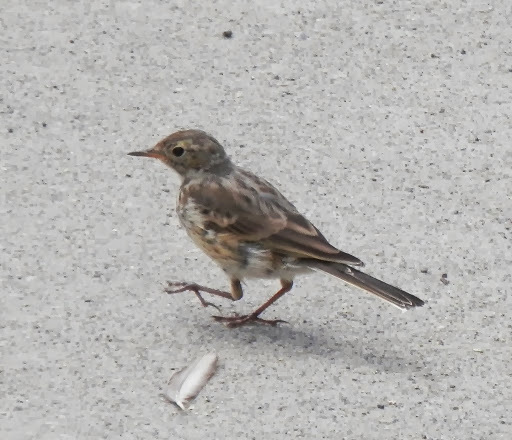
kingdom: Animalia
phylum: Chordata
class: Aves
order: Passeriformes
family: Motacillidae
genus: Anthus
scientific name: Anthus rubescens
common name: Buff-bellied pipit
